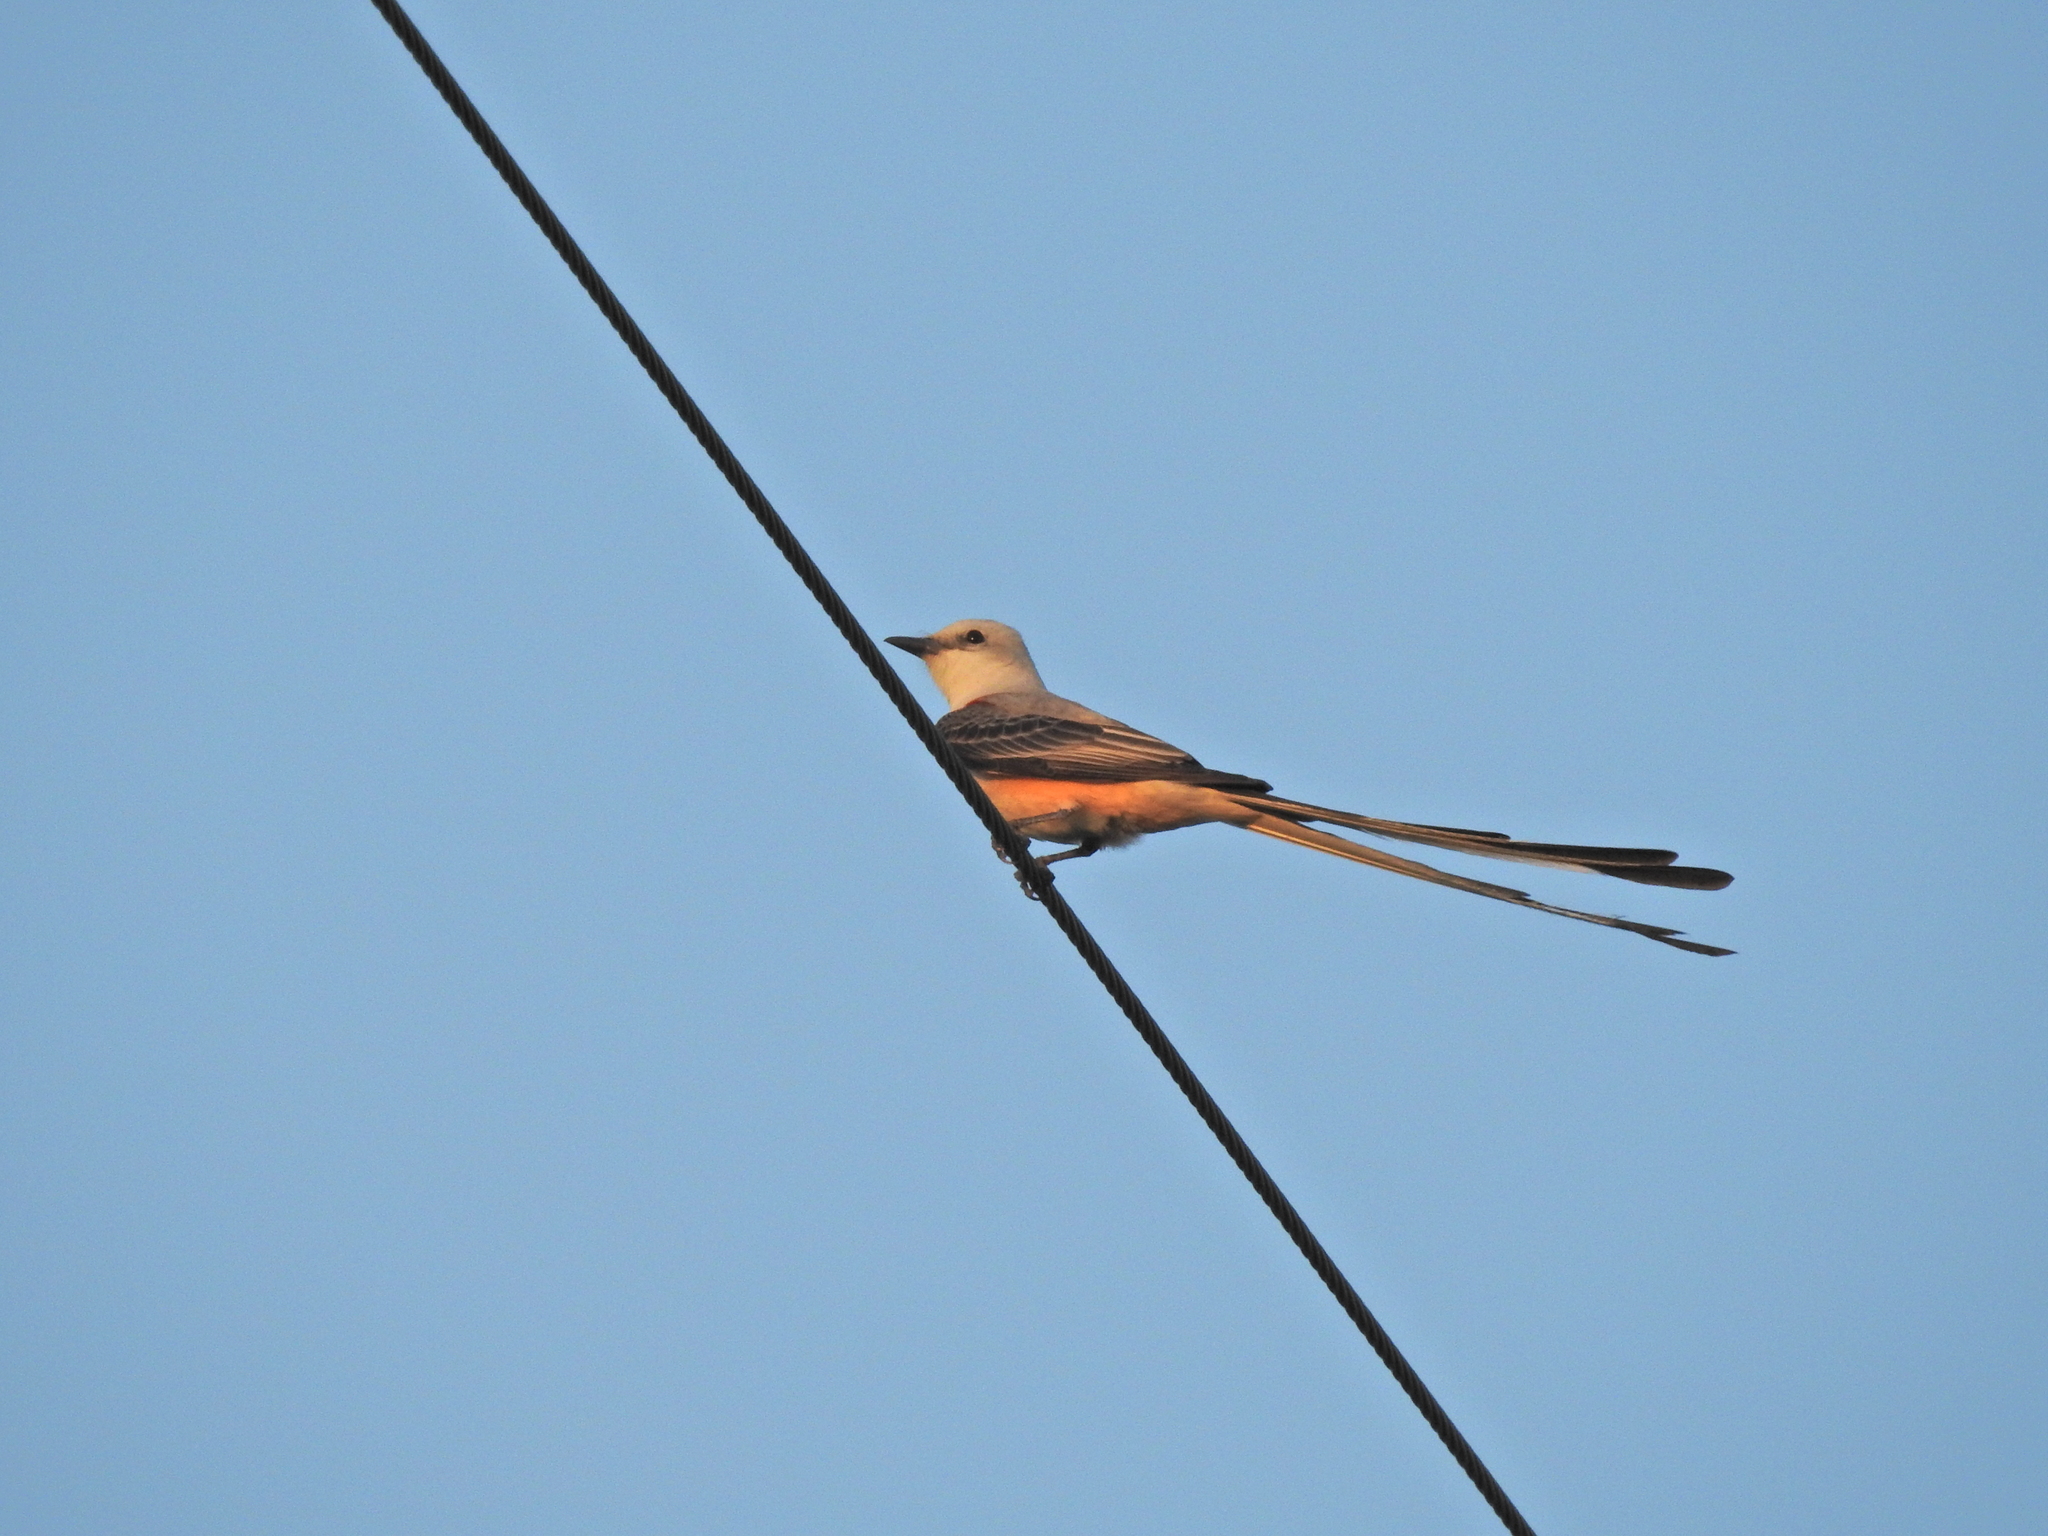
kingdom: Animalia
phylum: Chordata
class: Aves
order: Passeriformes
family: Tyrannidae
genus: Tyrannus
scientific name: Tyrannus forficatus
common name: Scissor-tailed flycatcher
